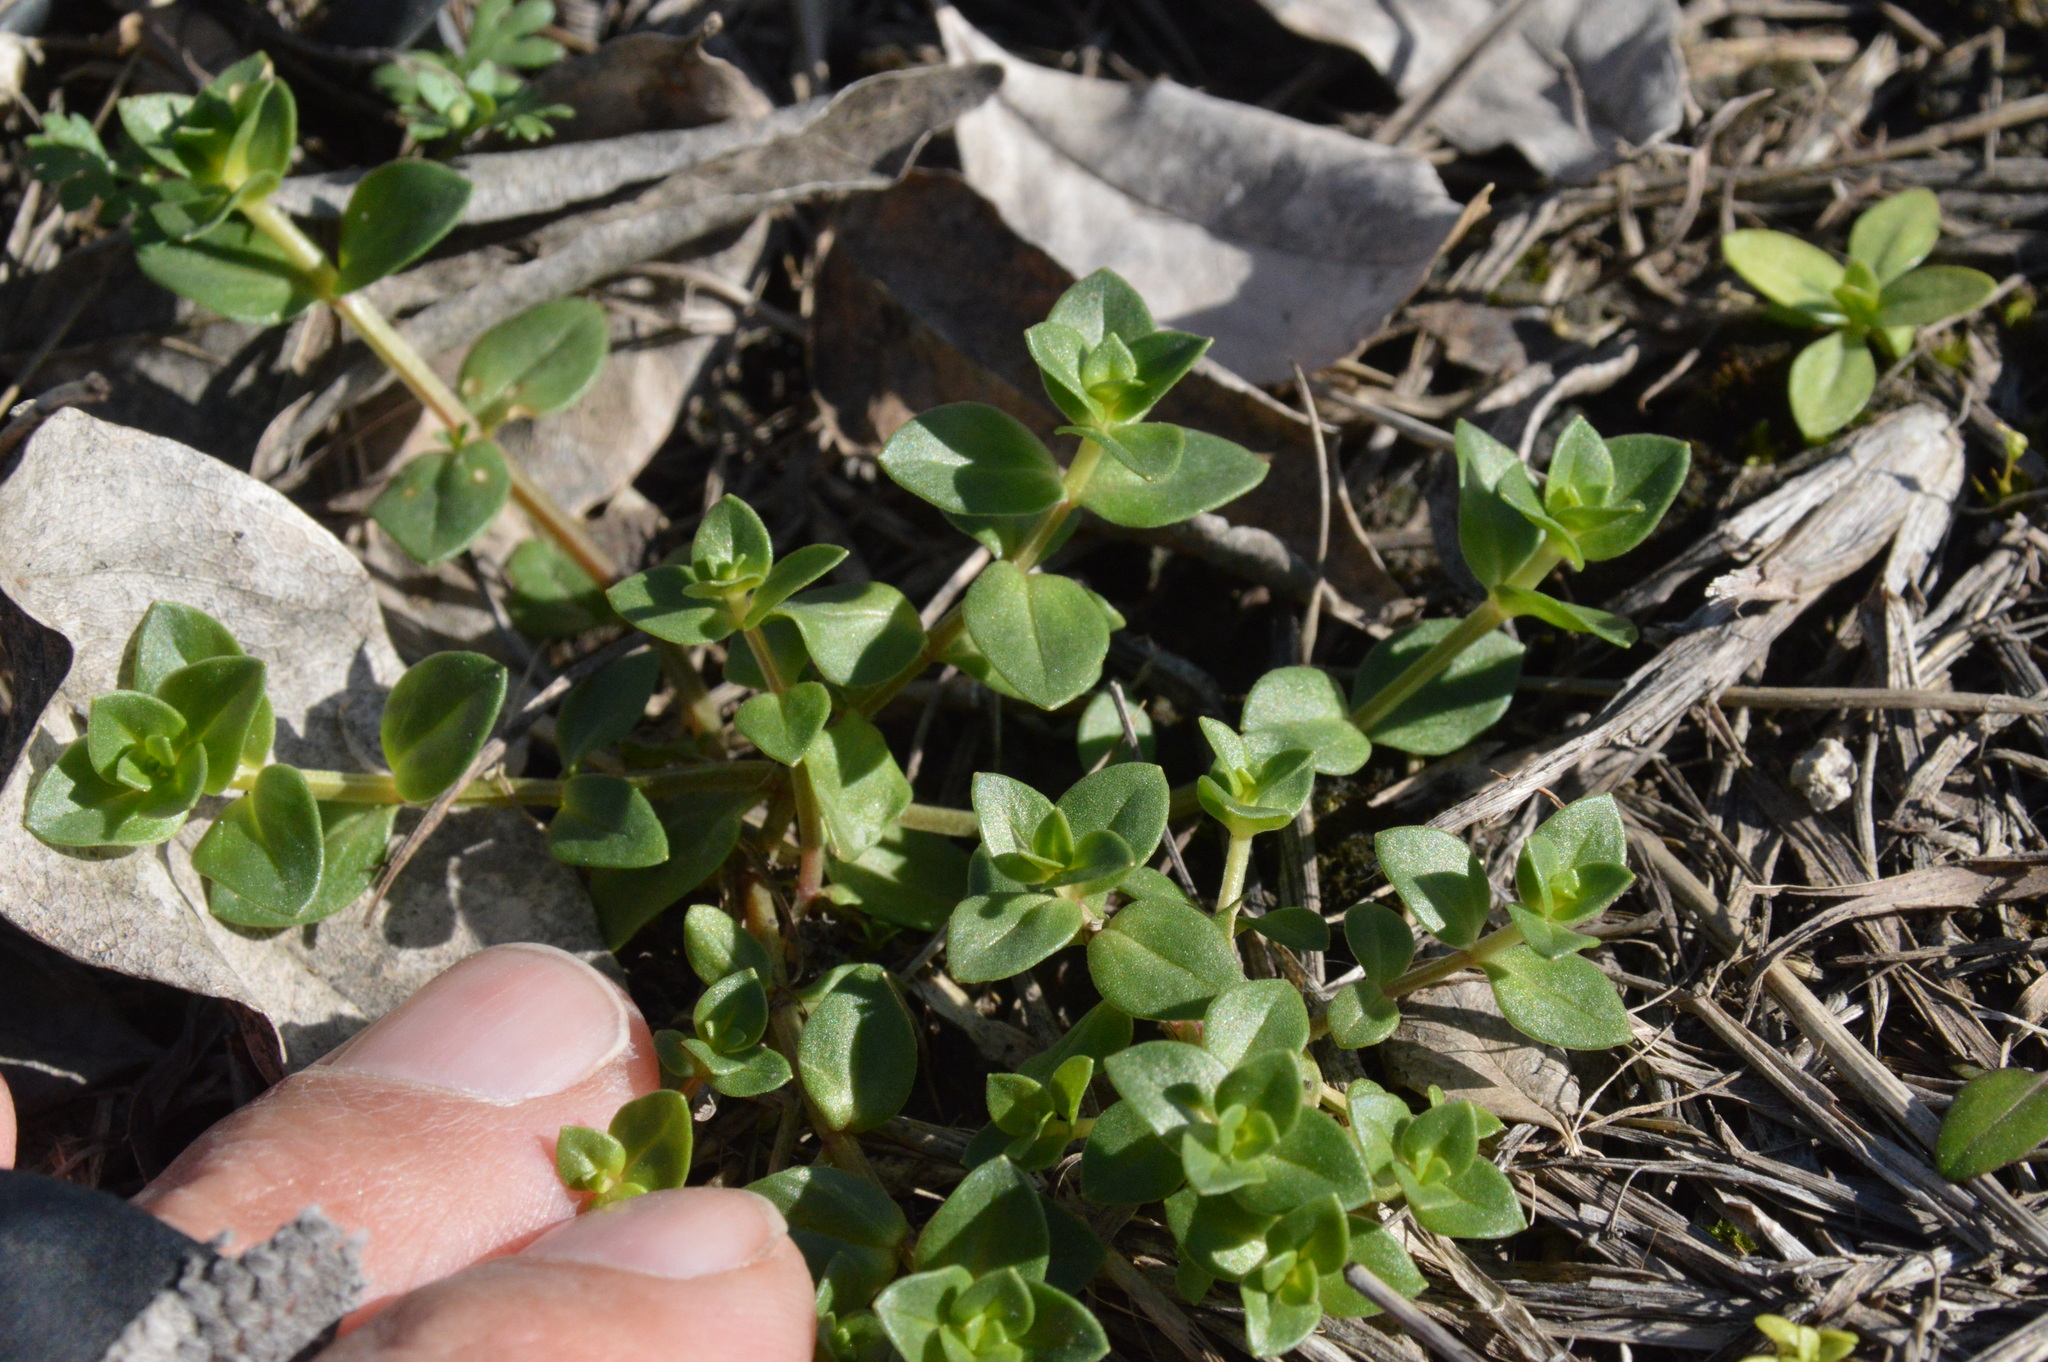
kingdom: Plantae
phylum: Tracheophyta
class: Magnoliopsida
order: Ericales
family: Primulaceae
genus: Lysimachia
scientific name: Lysimachia arvensis
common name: Scarlet pimpernel
